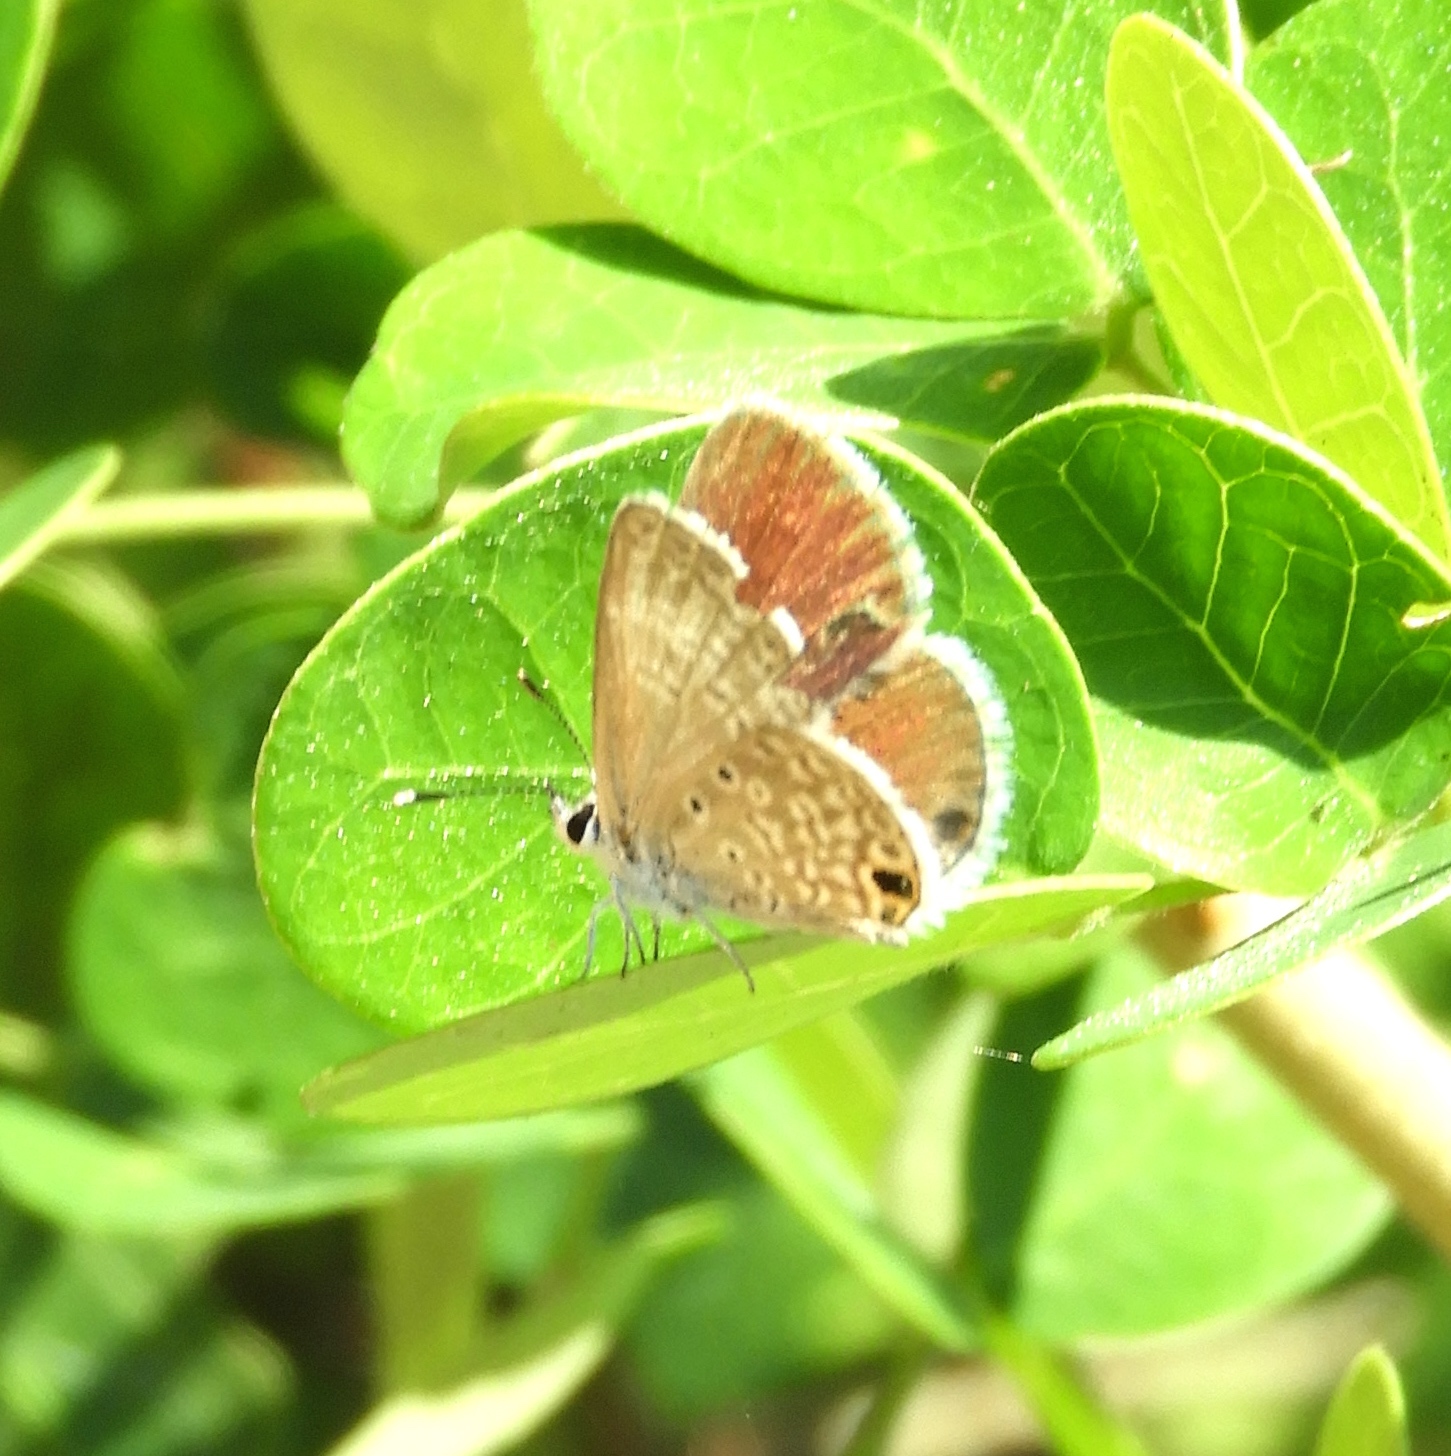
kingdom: Animalia
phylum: Arthropoda
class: Insecta
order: Lepidoptera
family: Lycaenidae
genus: Leptotes
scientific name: Leptotes marina
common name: Marine blue
